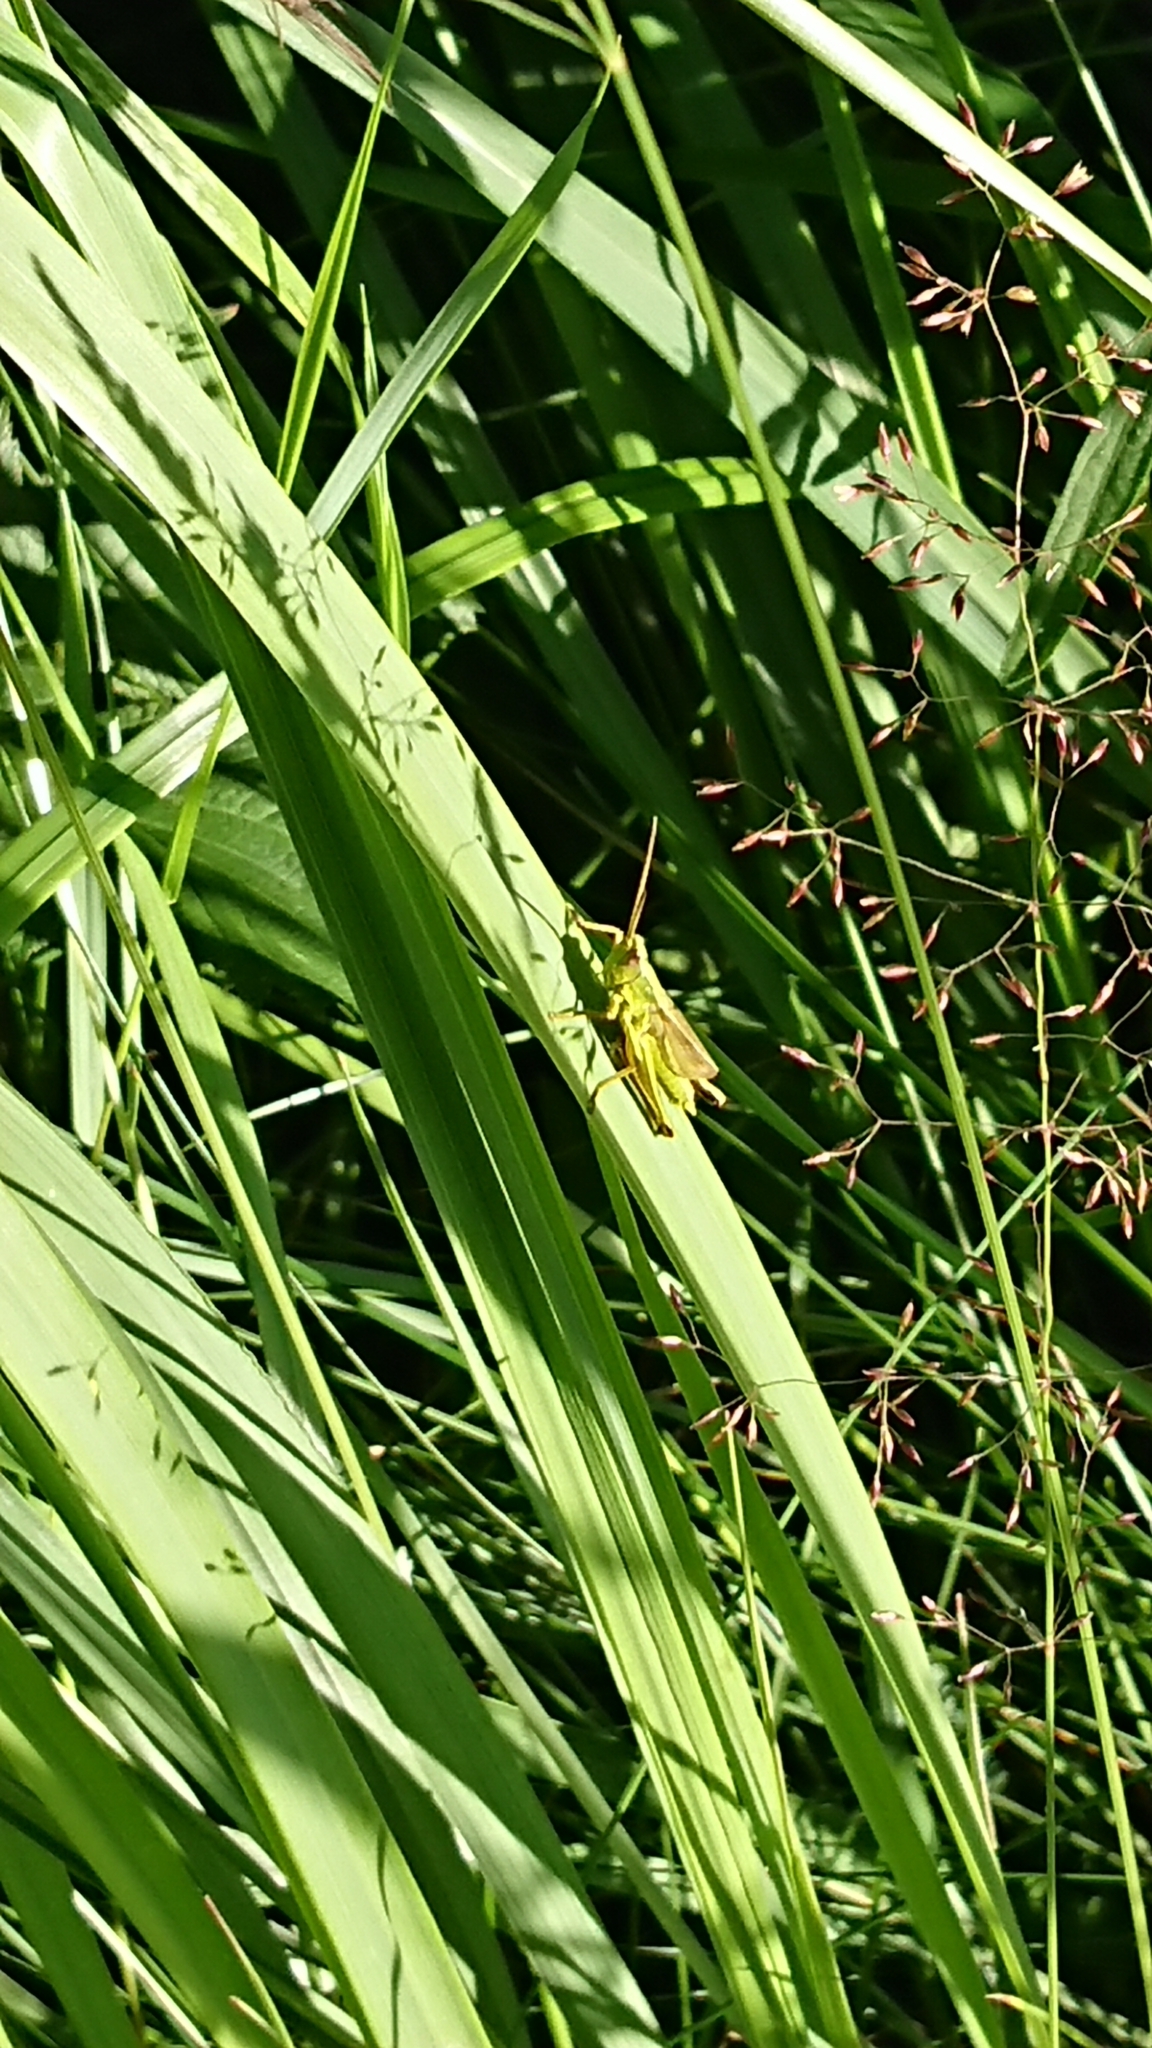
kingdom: Animalia
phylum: Arthropoda
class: Insecta
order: Orthoptera
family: Acrididae
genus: Chrysochraon
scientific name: Chrysochraon dispar
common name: Large gold grasshopper
